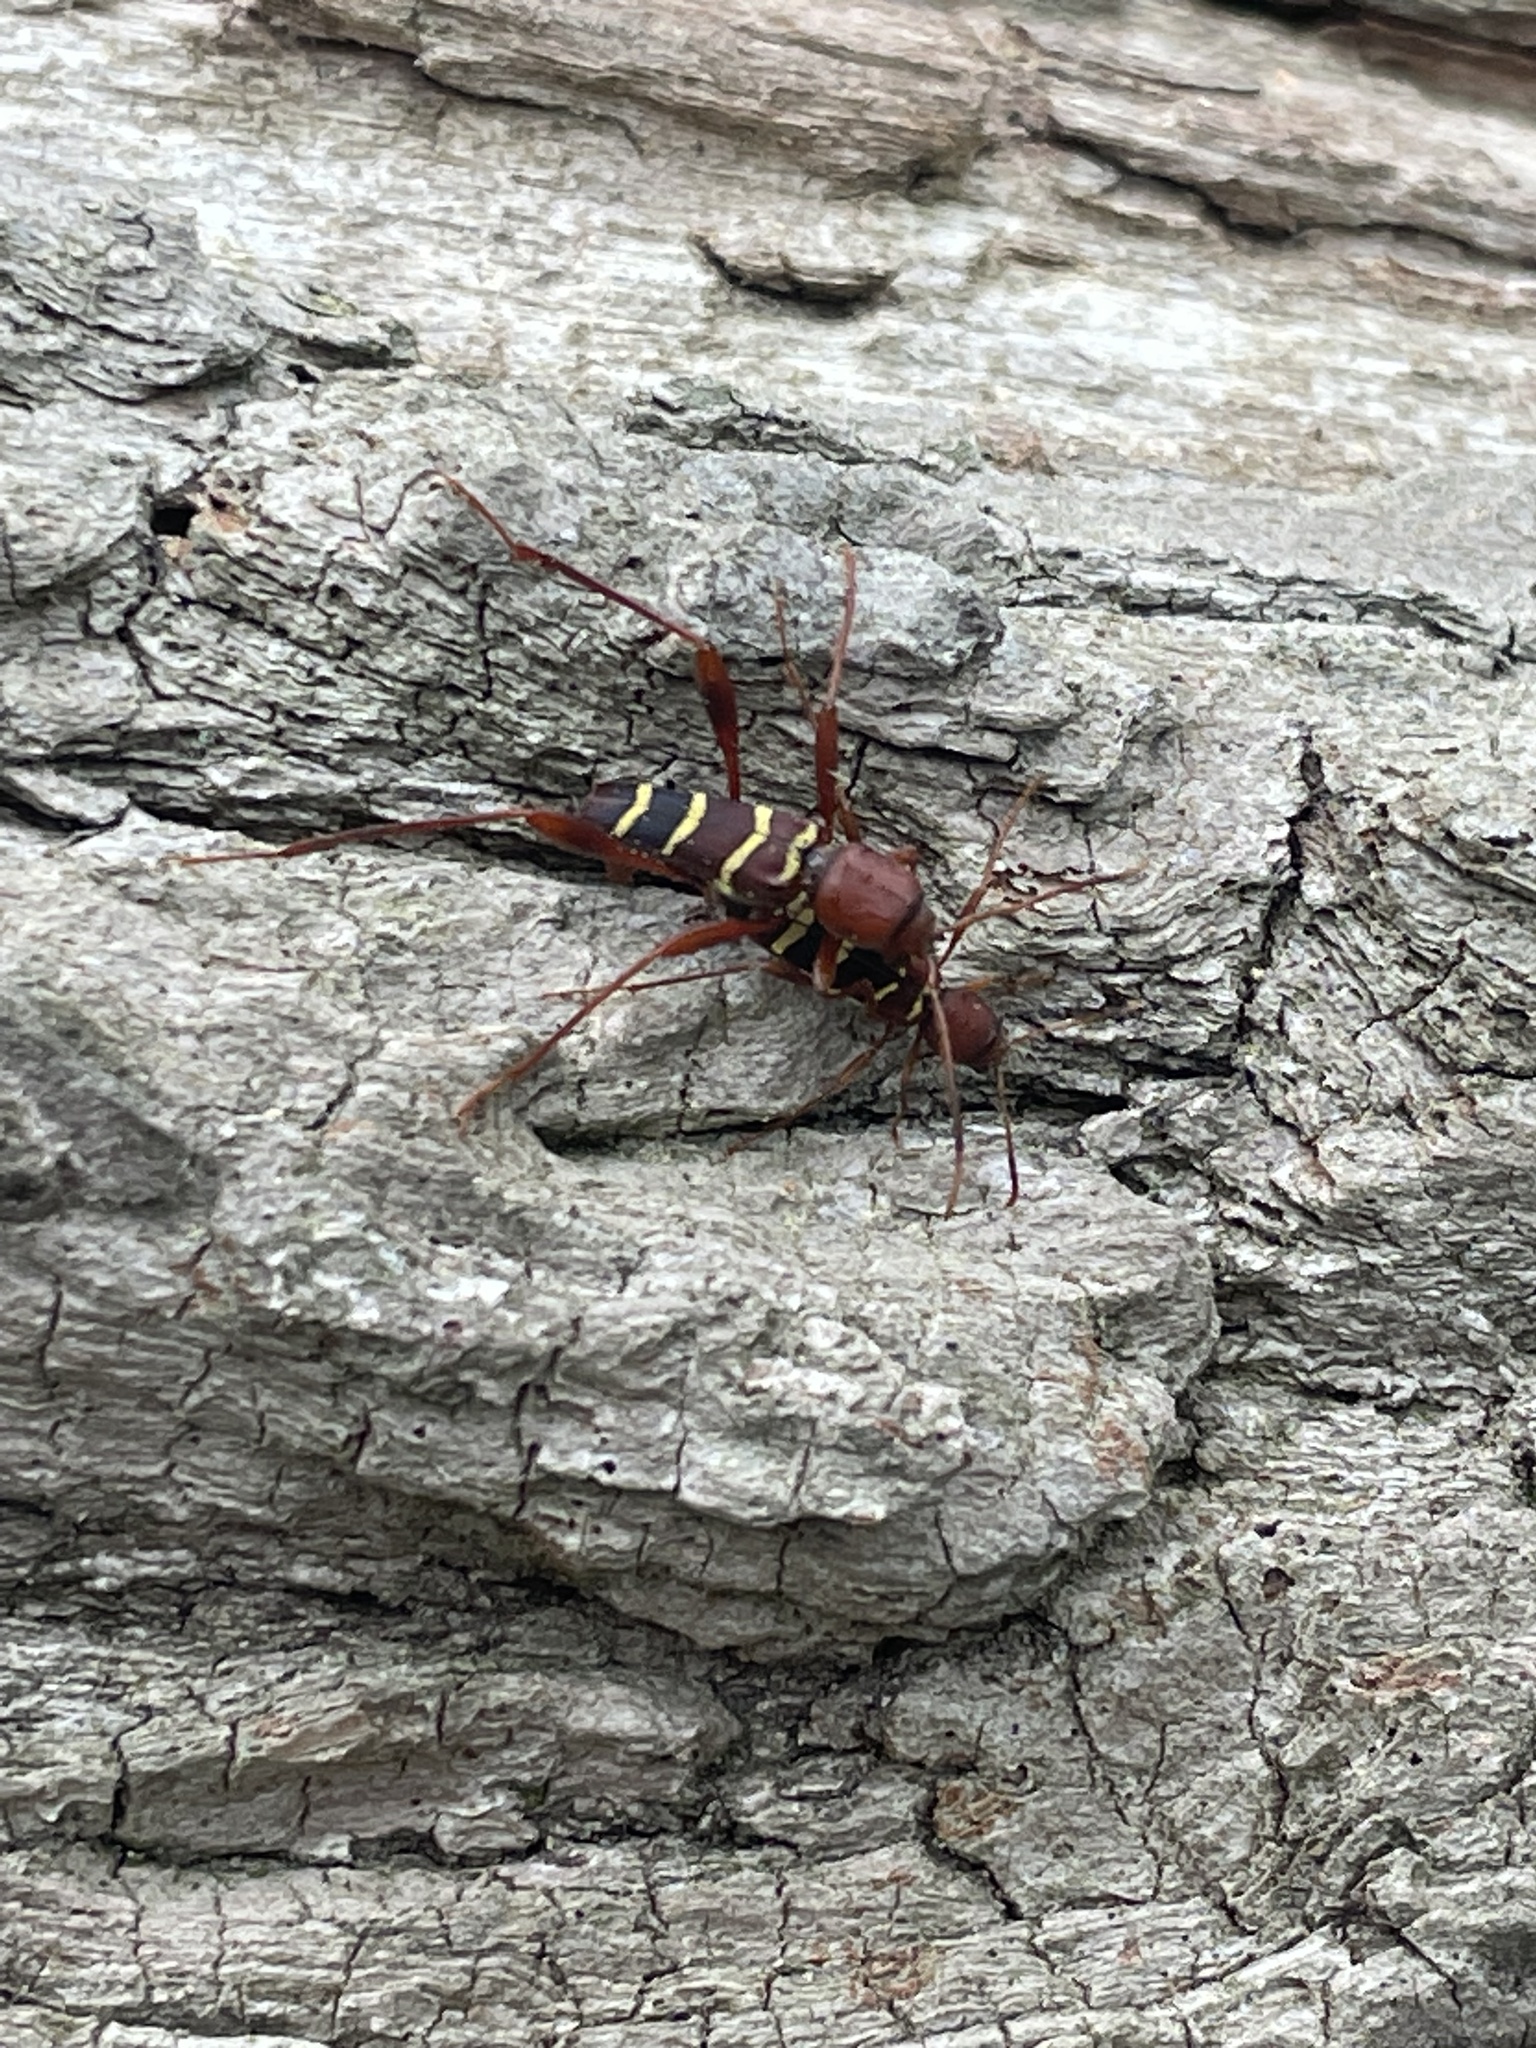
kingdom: Animalia
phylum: Arthropoda
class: Insecta
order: Coleoptera
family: Cerambycidae
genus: Neoclytus
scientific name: Neoclytus acuminatus
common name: Read-headed ash borer
